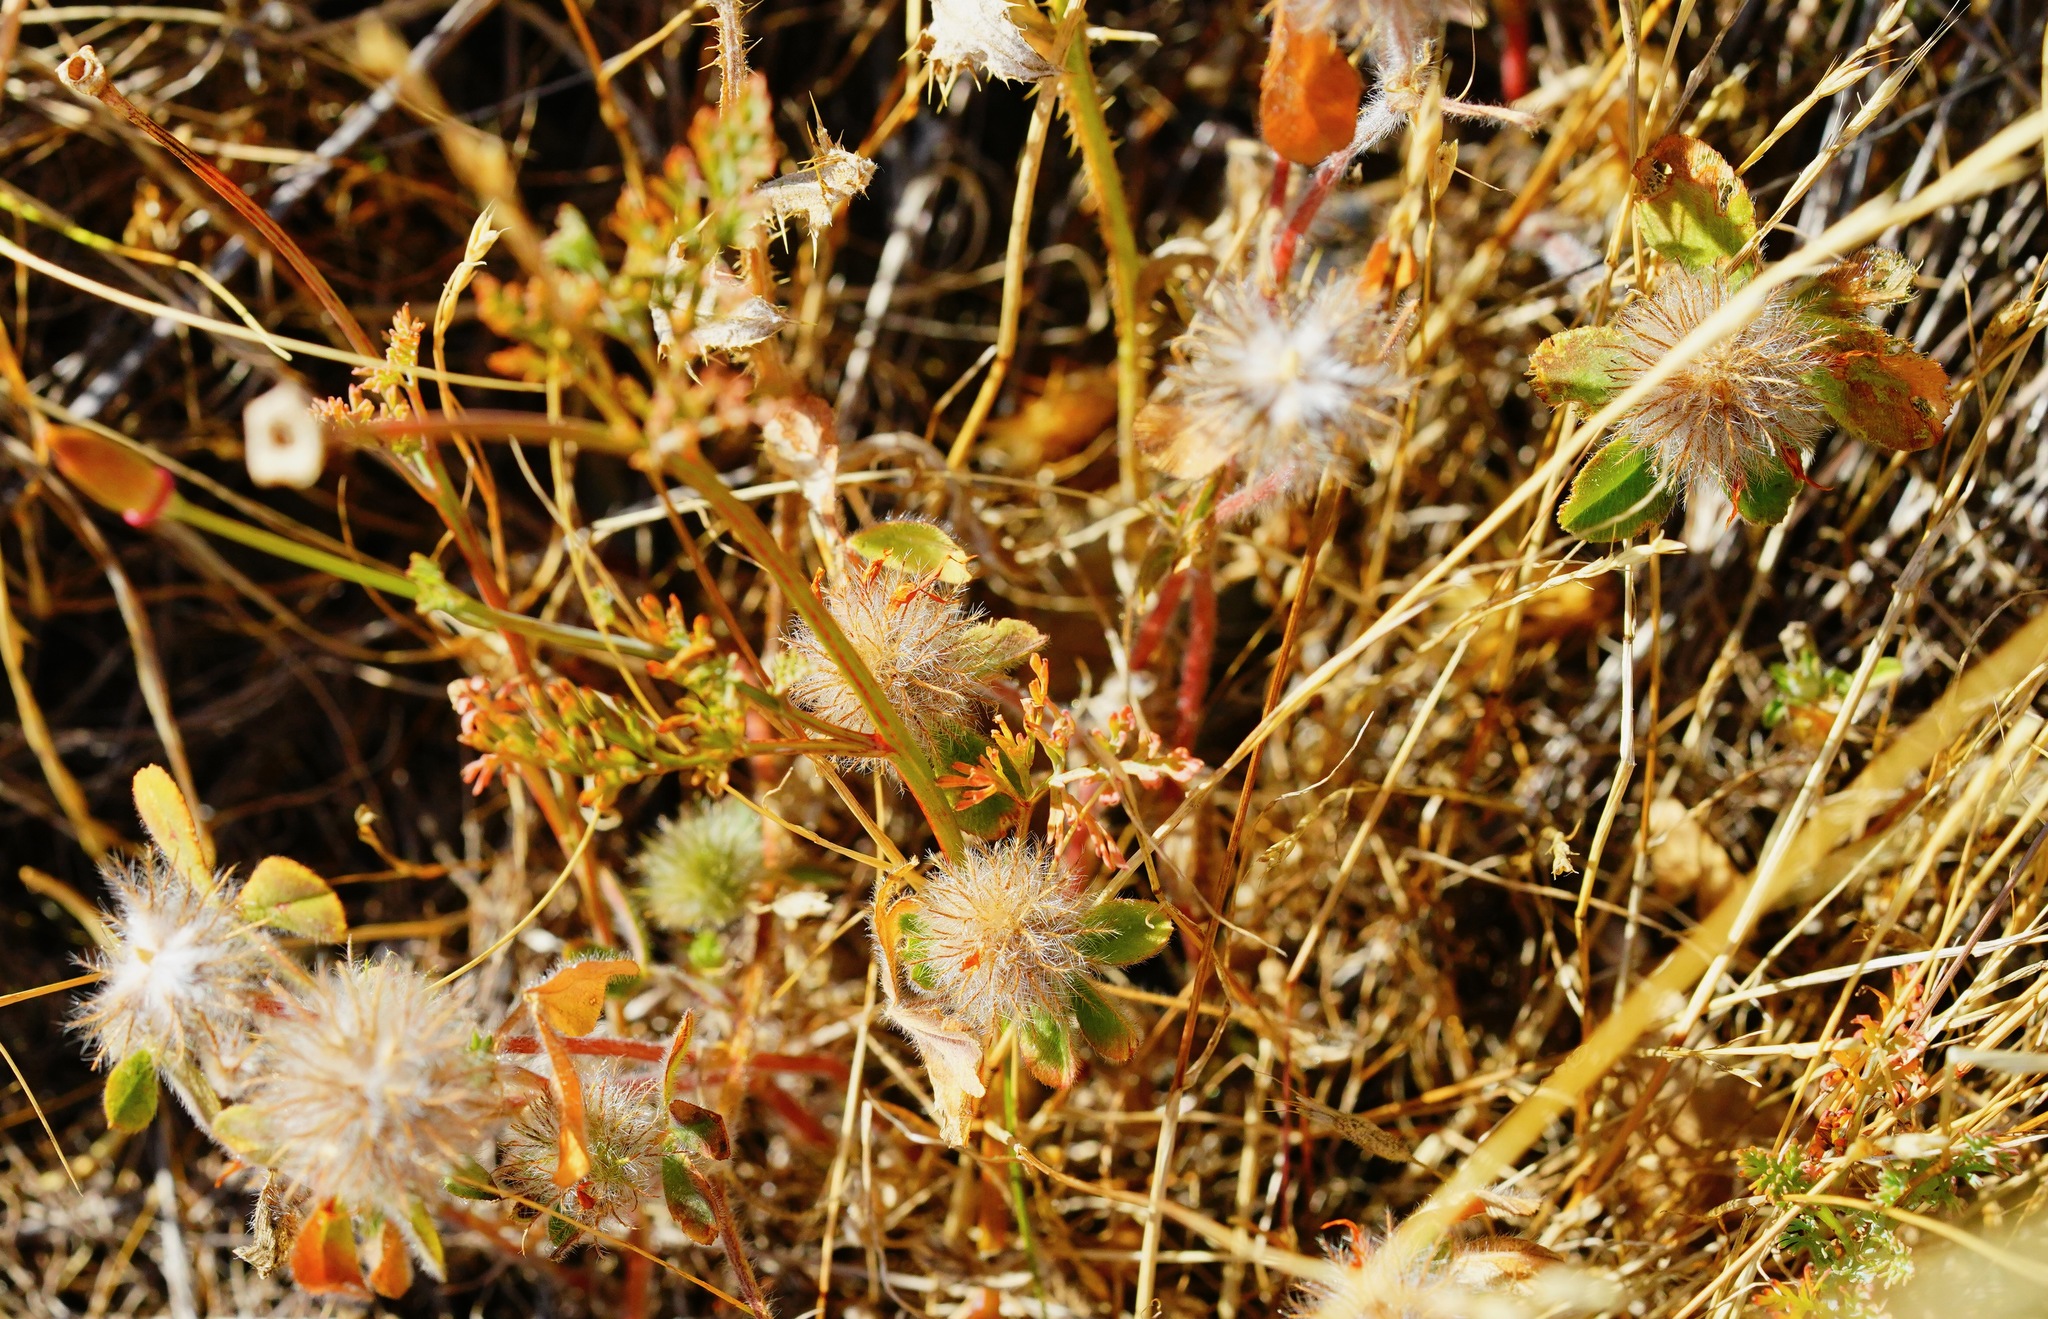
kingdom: Plantae
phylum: Tracheophyta
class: Magnoliopsida
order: Fabales
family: Fabaceae
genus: Trifolium
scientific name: Trifolium hirtum
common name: Rose clover
